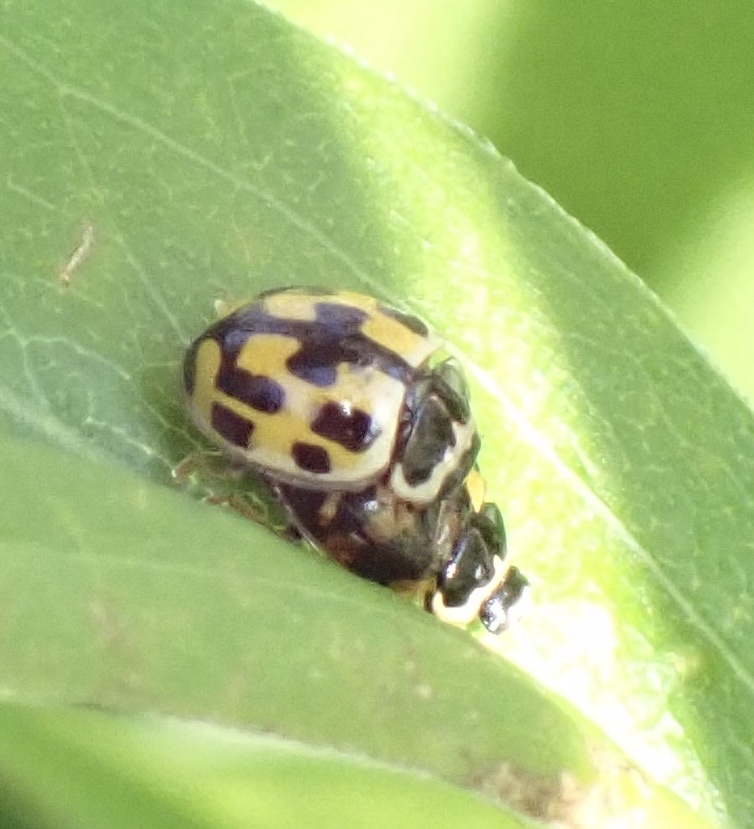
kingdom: Animalia
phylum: Arthropoda
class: Insecta
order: Coleoptera
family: Coccinellidae
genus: Propylaea
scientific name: Propylaea quatuordecimpunctata
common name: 14-spotted ladybird beetle
